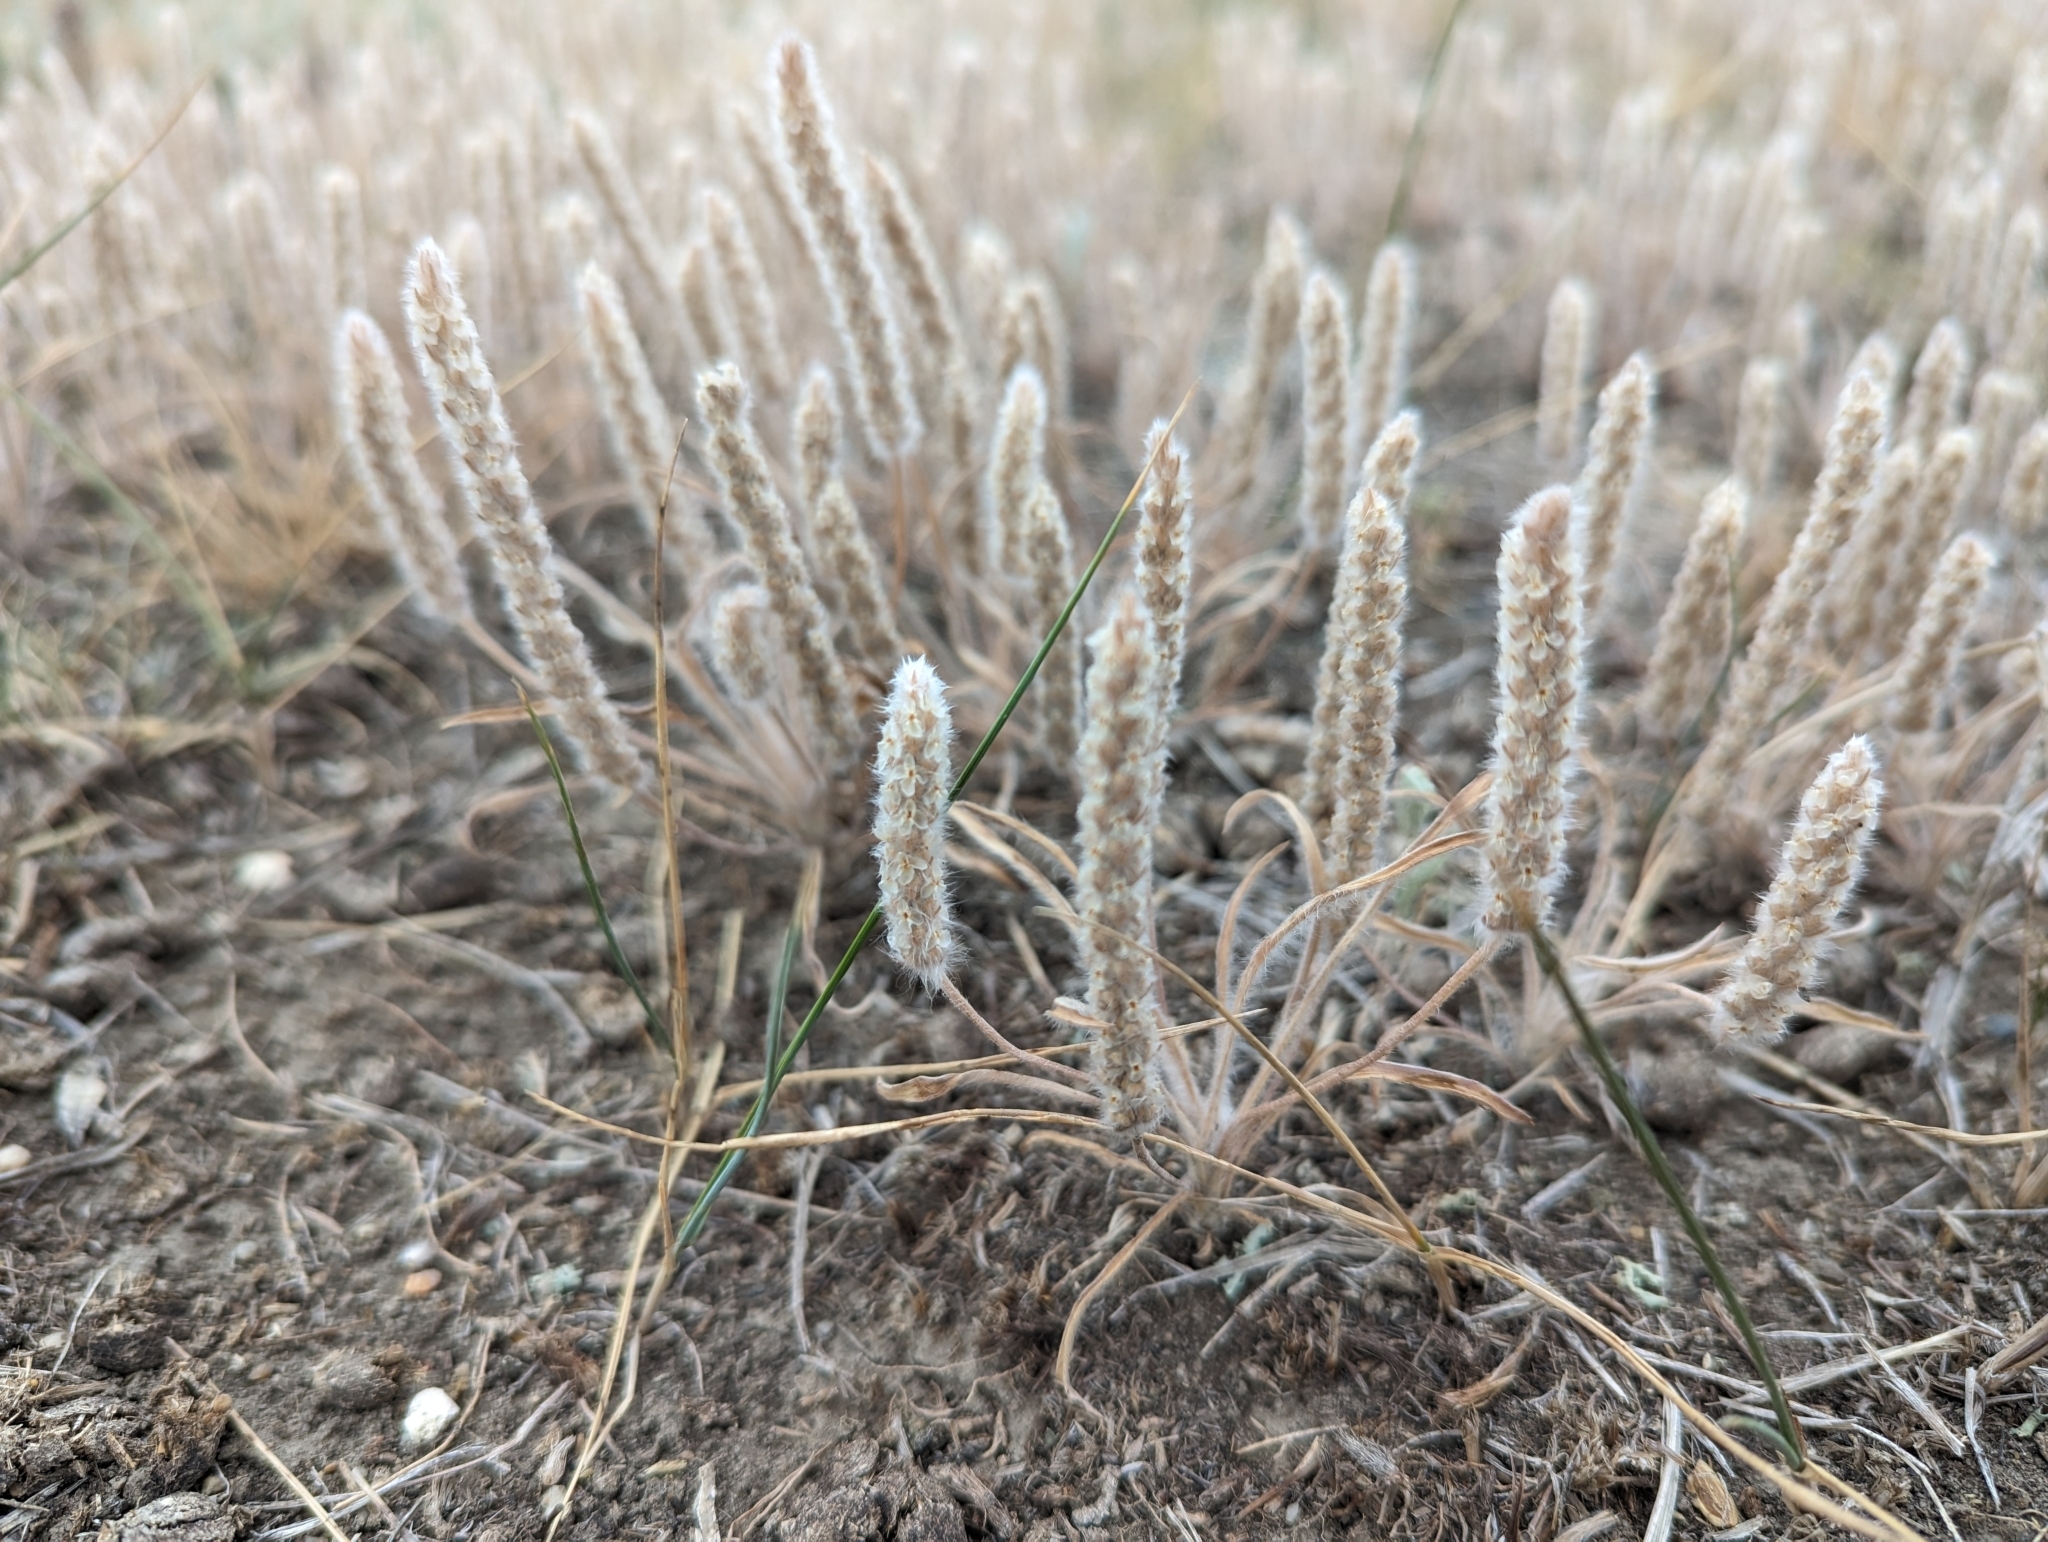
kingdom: Plantae
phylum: Tracheophyta
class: Magnoliopsida
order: Lamiales
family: Plantaginaceae
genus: Plantago
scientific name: Plantago patagonica
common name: Patagonia indian-wheat
